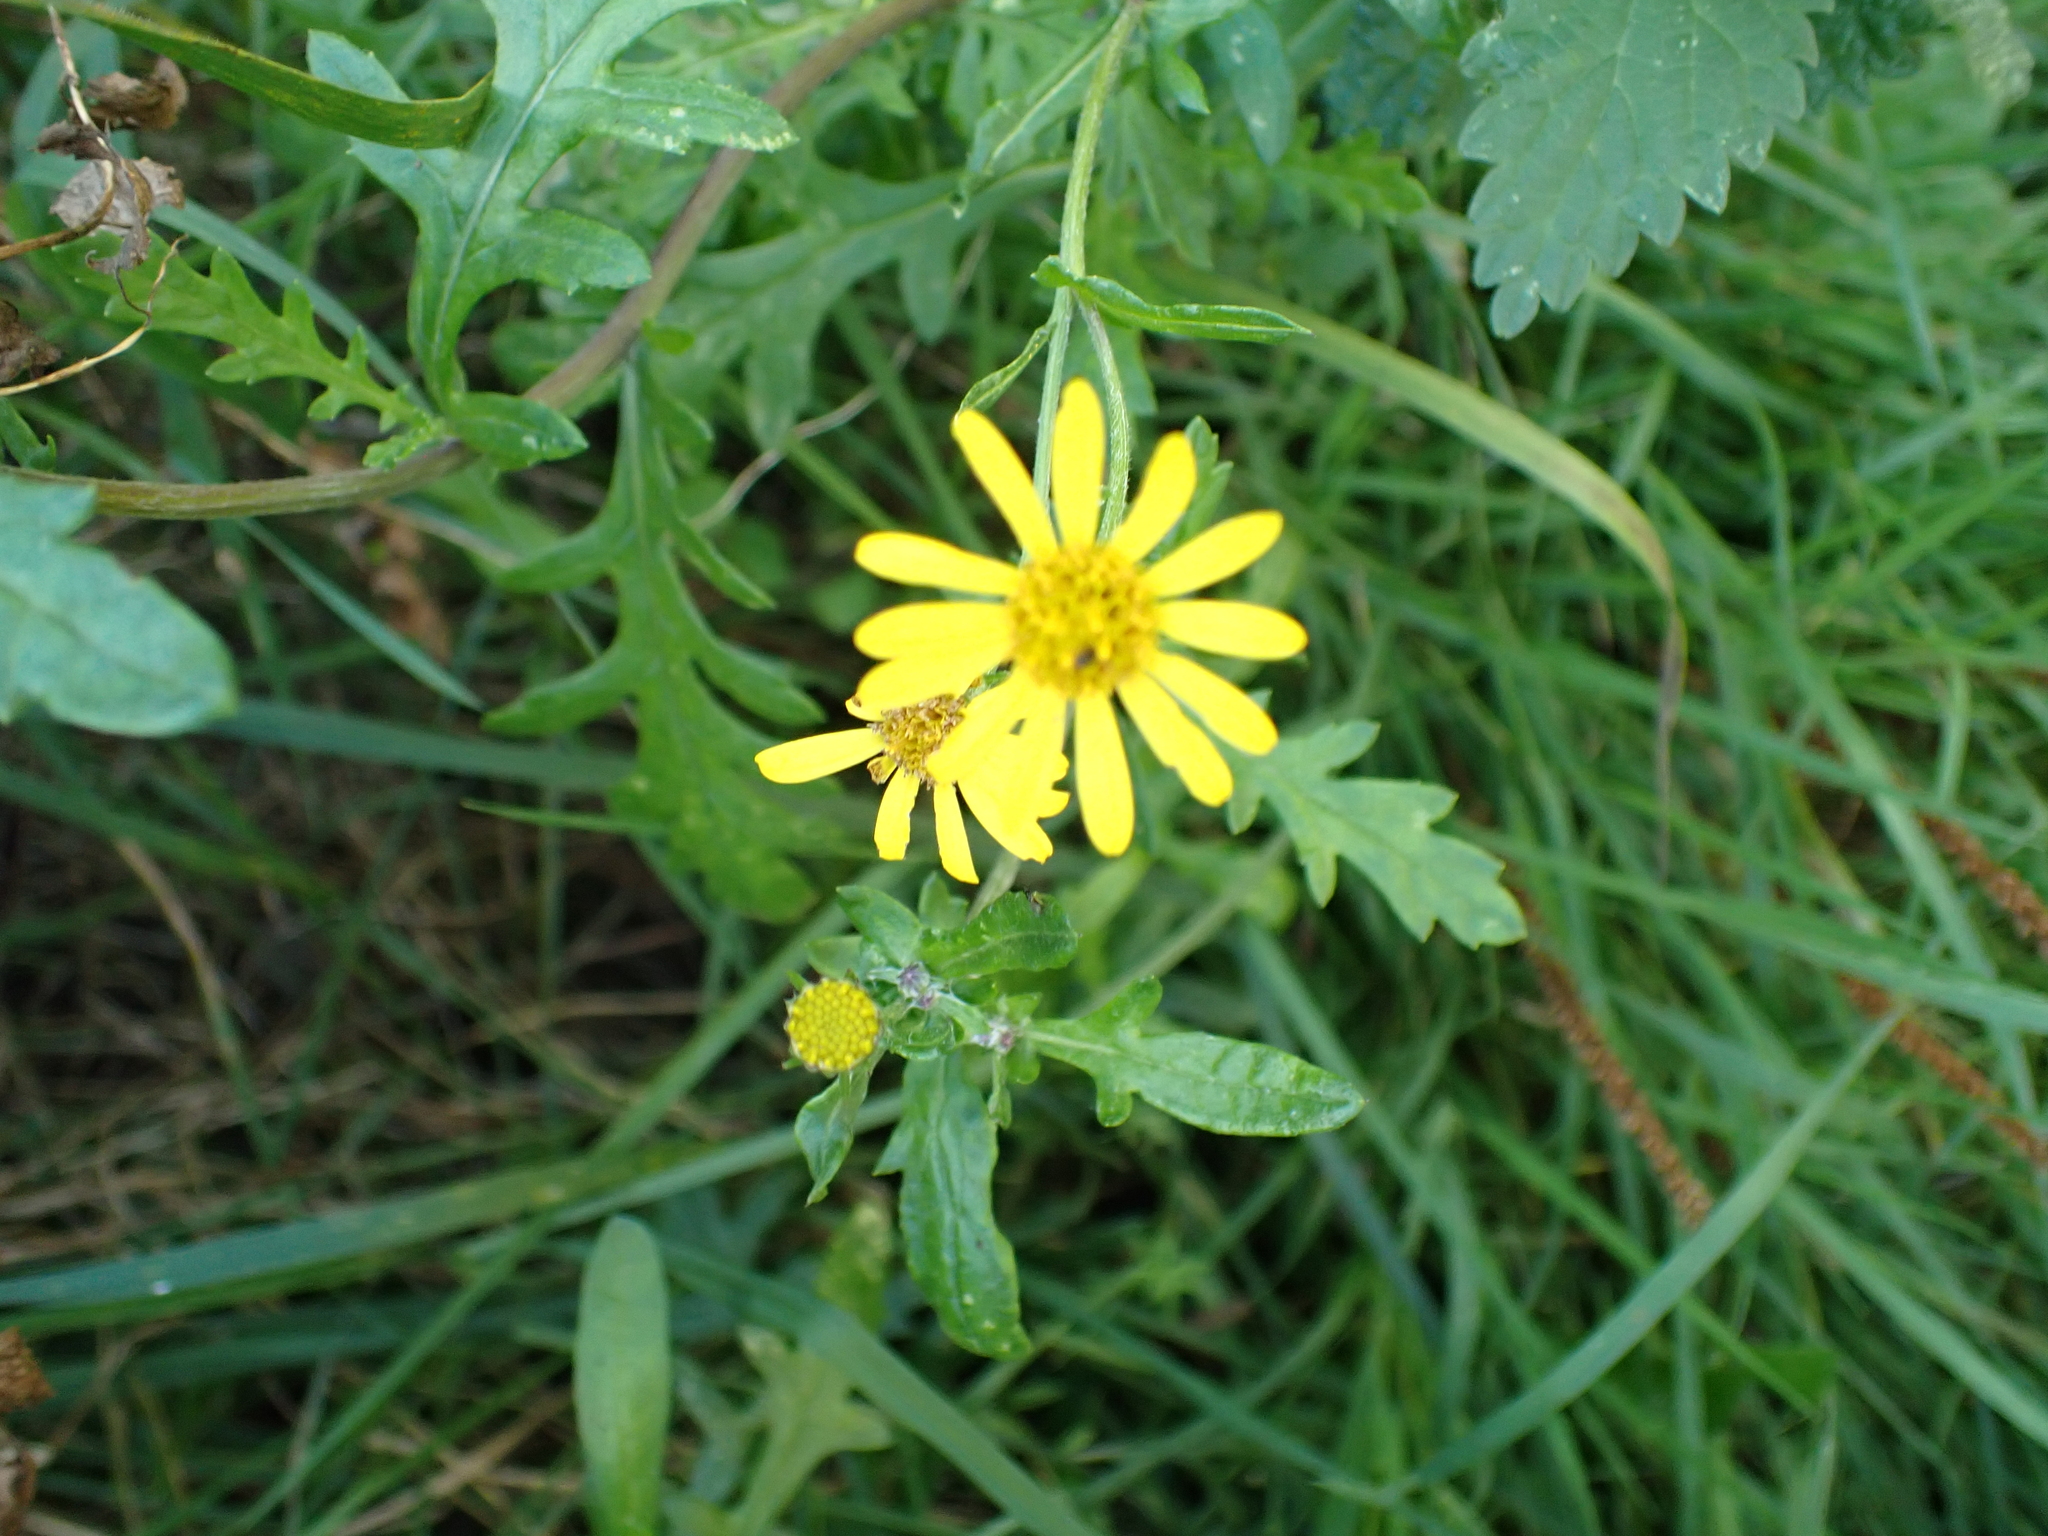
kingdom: Plantae
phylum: Tracheophyta
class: Magnoliopsida
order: Asterales
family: Asteraceae
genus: Senecio
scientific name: Senecio squalidus
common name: Oxford ragwort
